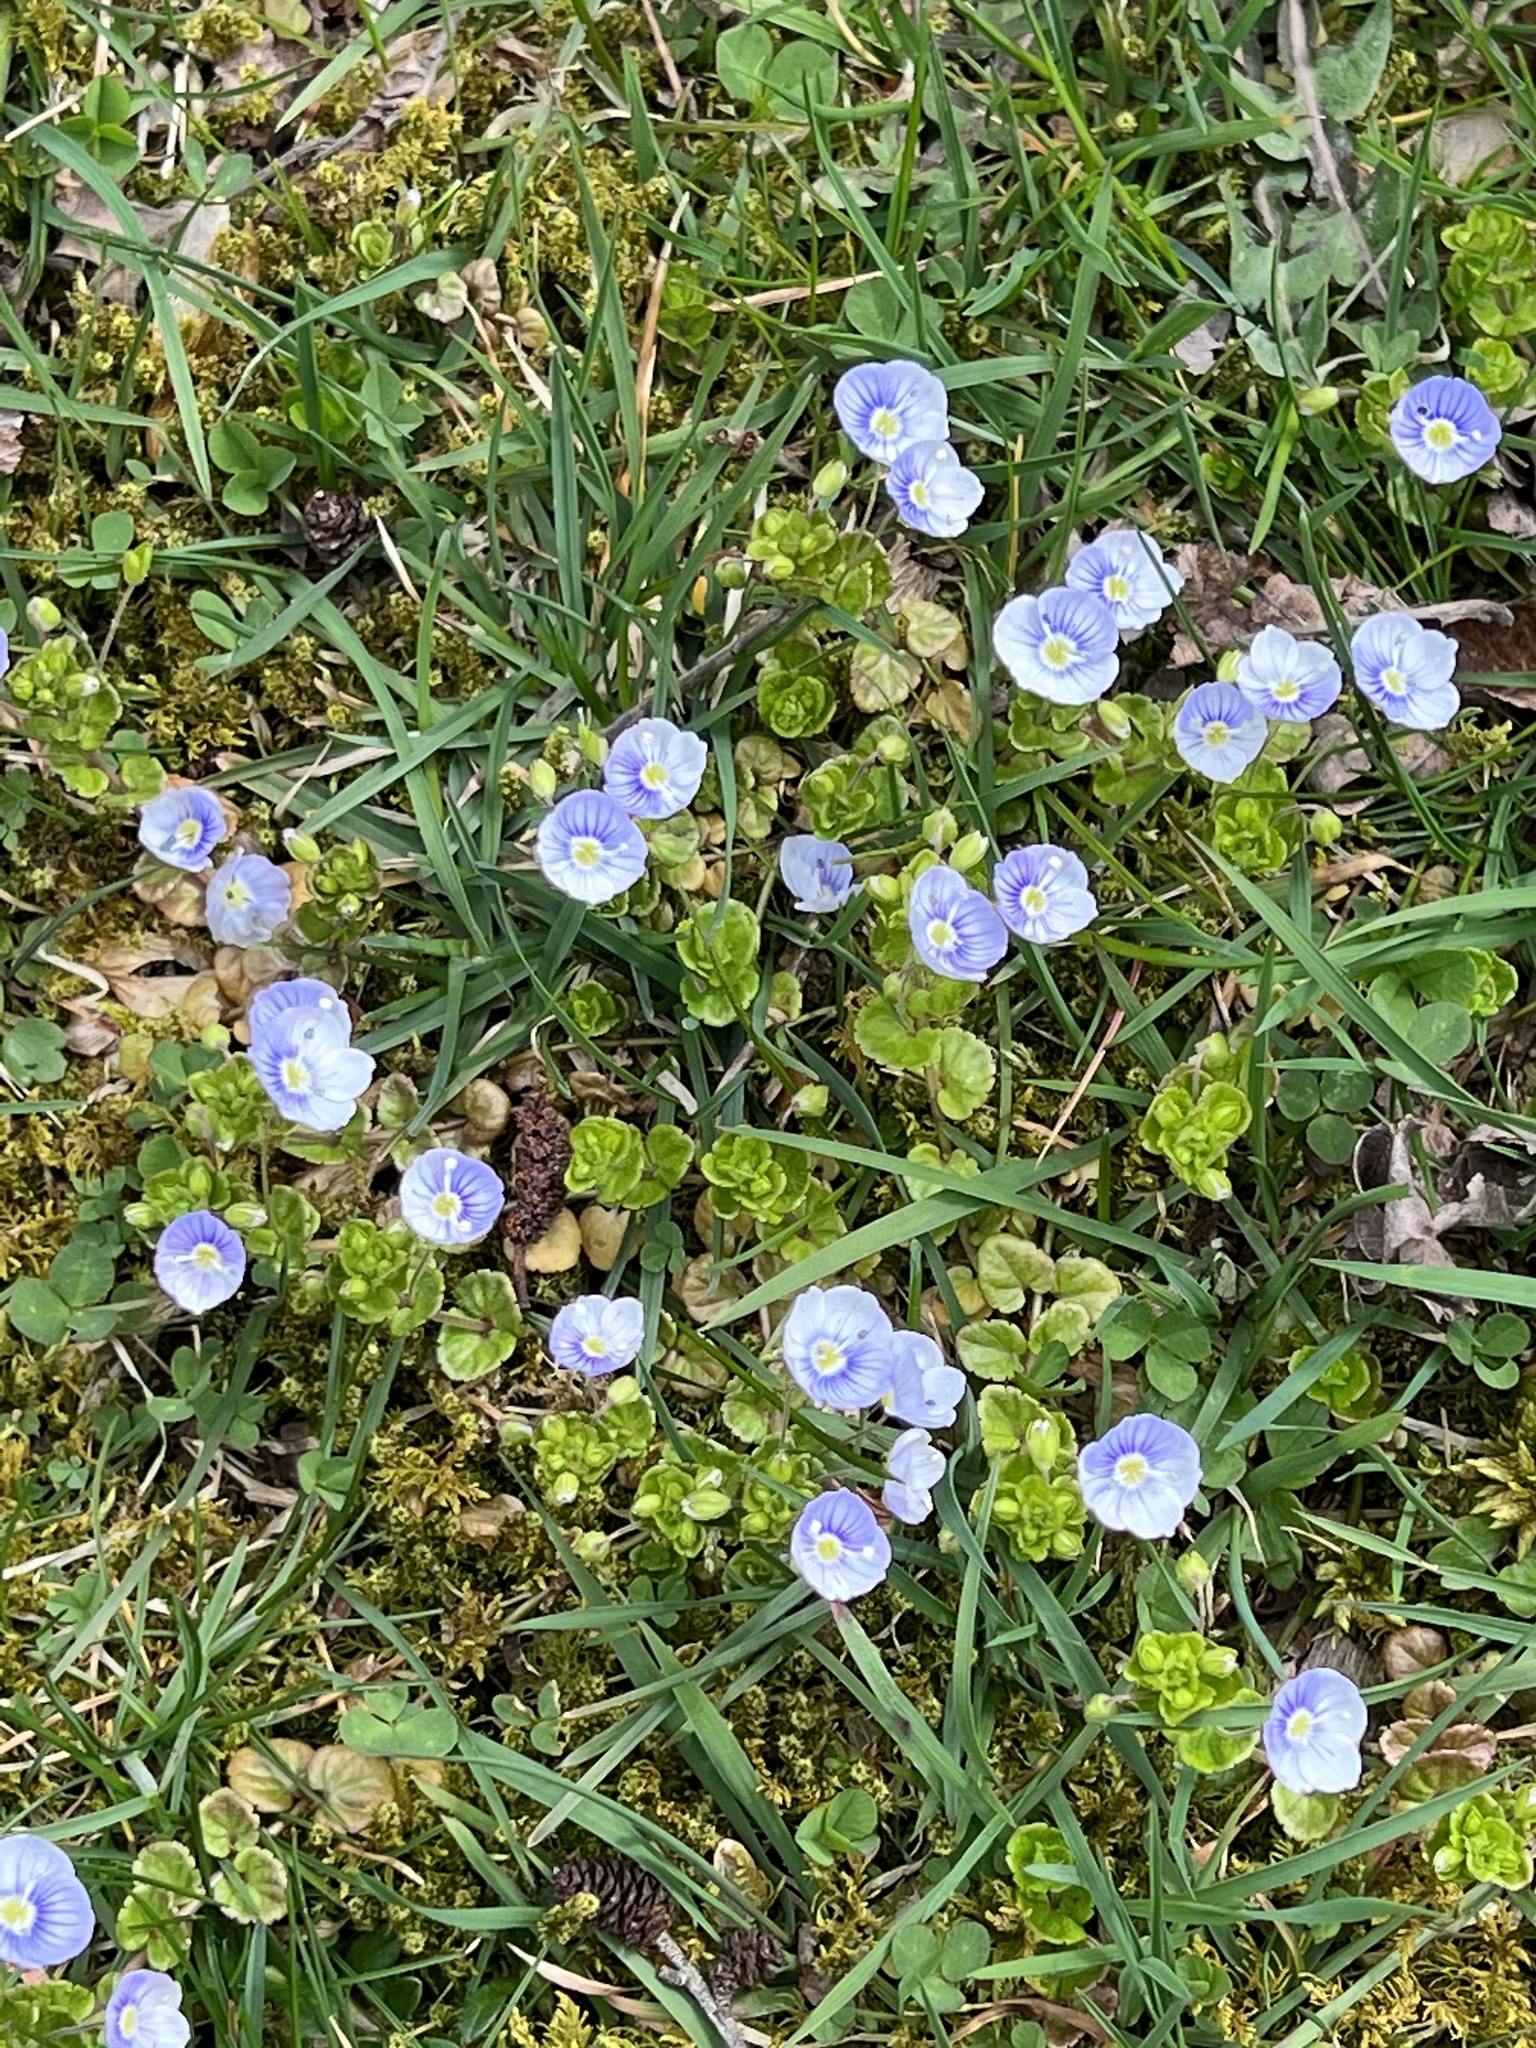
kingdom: Plantae
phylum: Tracheophyta
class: Magnoliopsida
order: Lamiales
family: Plantaginaceae
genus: Veronica
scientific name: Veronica filiformis
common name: Slender speedwell
